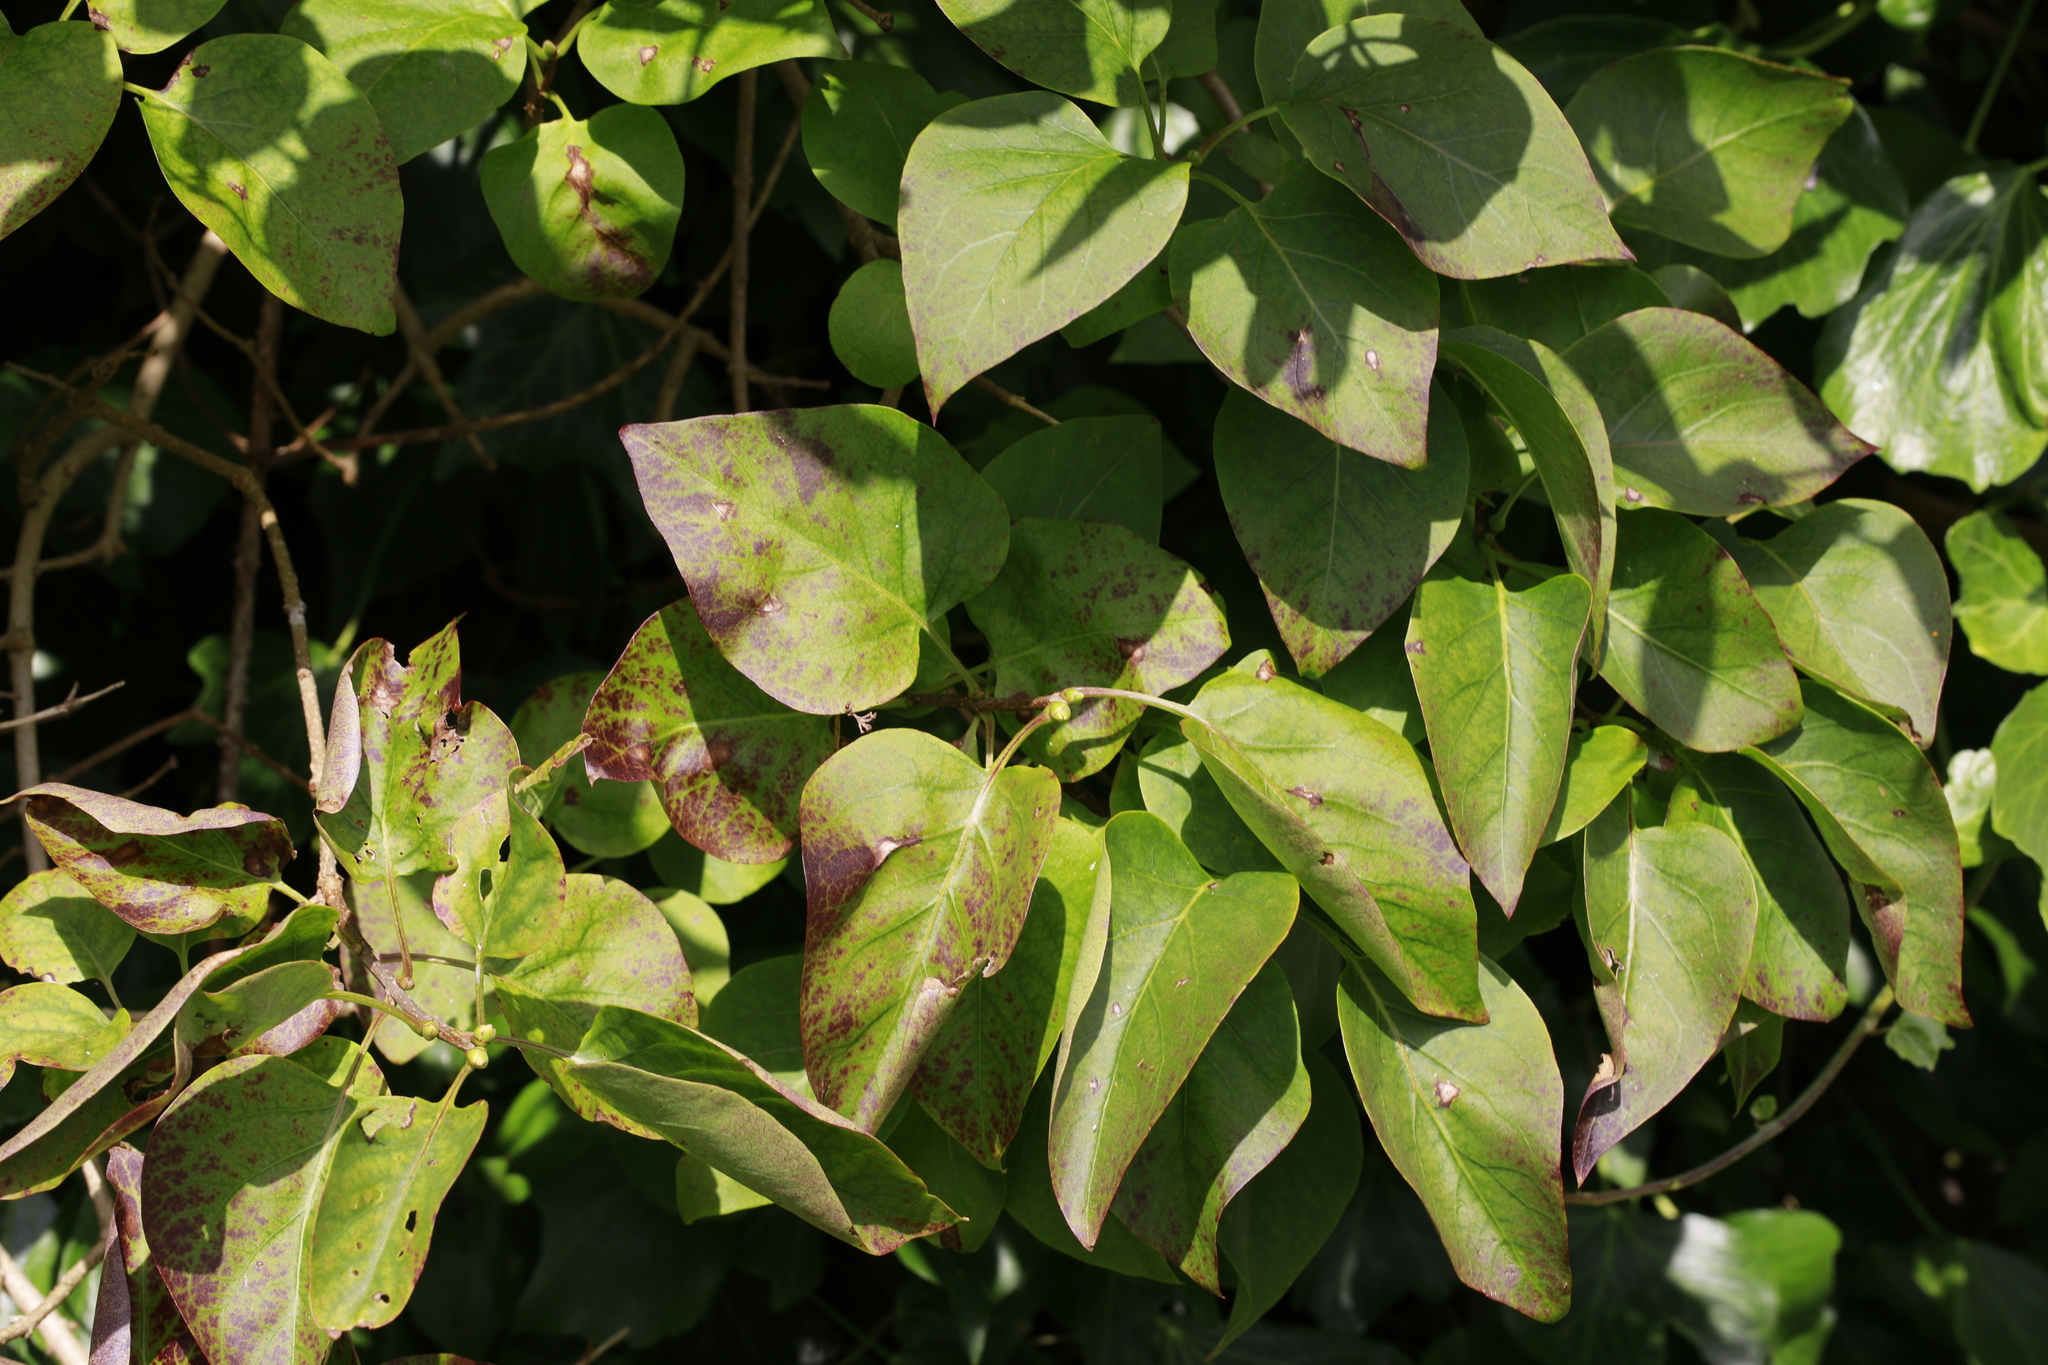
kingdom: Plantae
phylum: Tracheophyta
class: Magnoliopsida
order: Lamiales
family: Oleaceae
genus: Syringa
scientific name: Syringa vulgaris
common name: Common lilac
